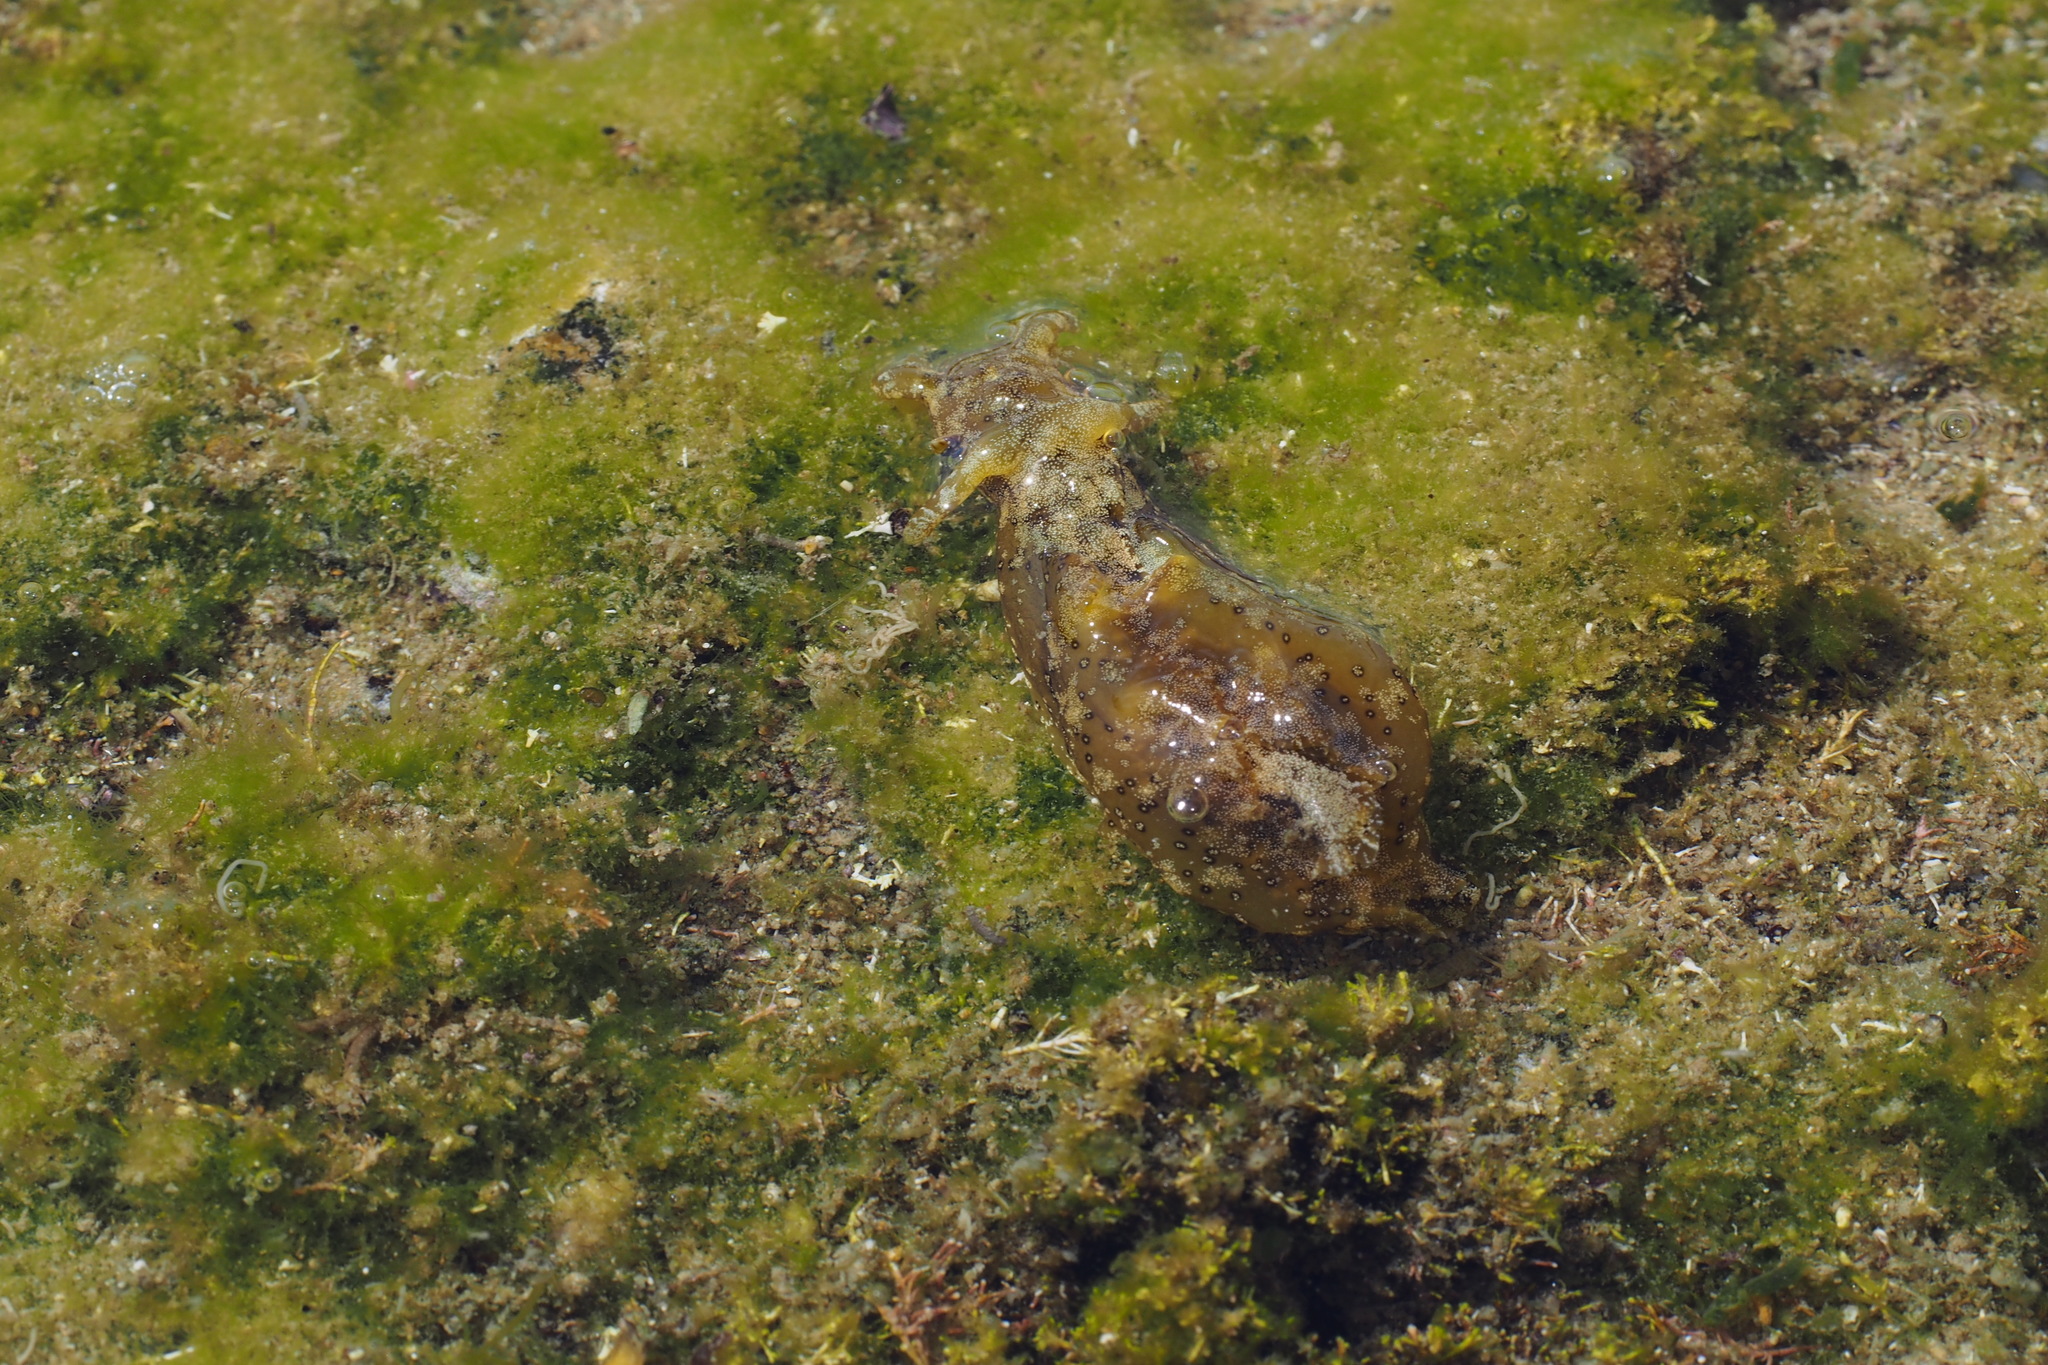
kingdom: Animalia
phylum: Mollusca
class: Gastropoda
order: Aplysiida
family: Aplysiidae
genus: Aplysia
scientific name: Aplysia oculifera
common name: Spotted sea hare
